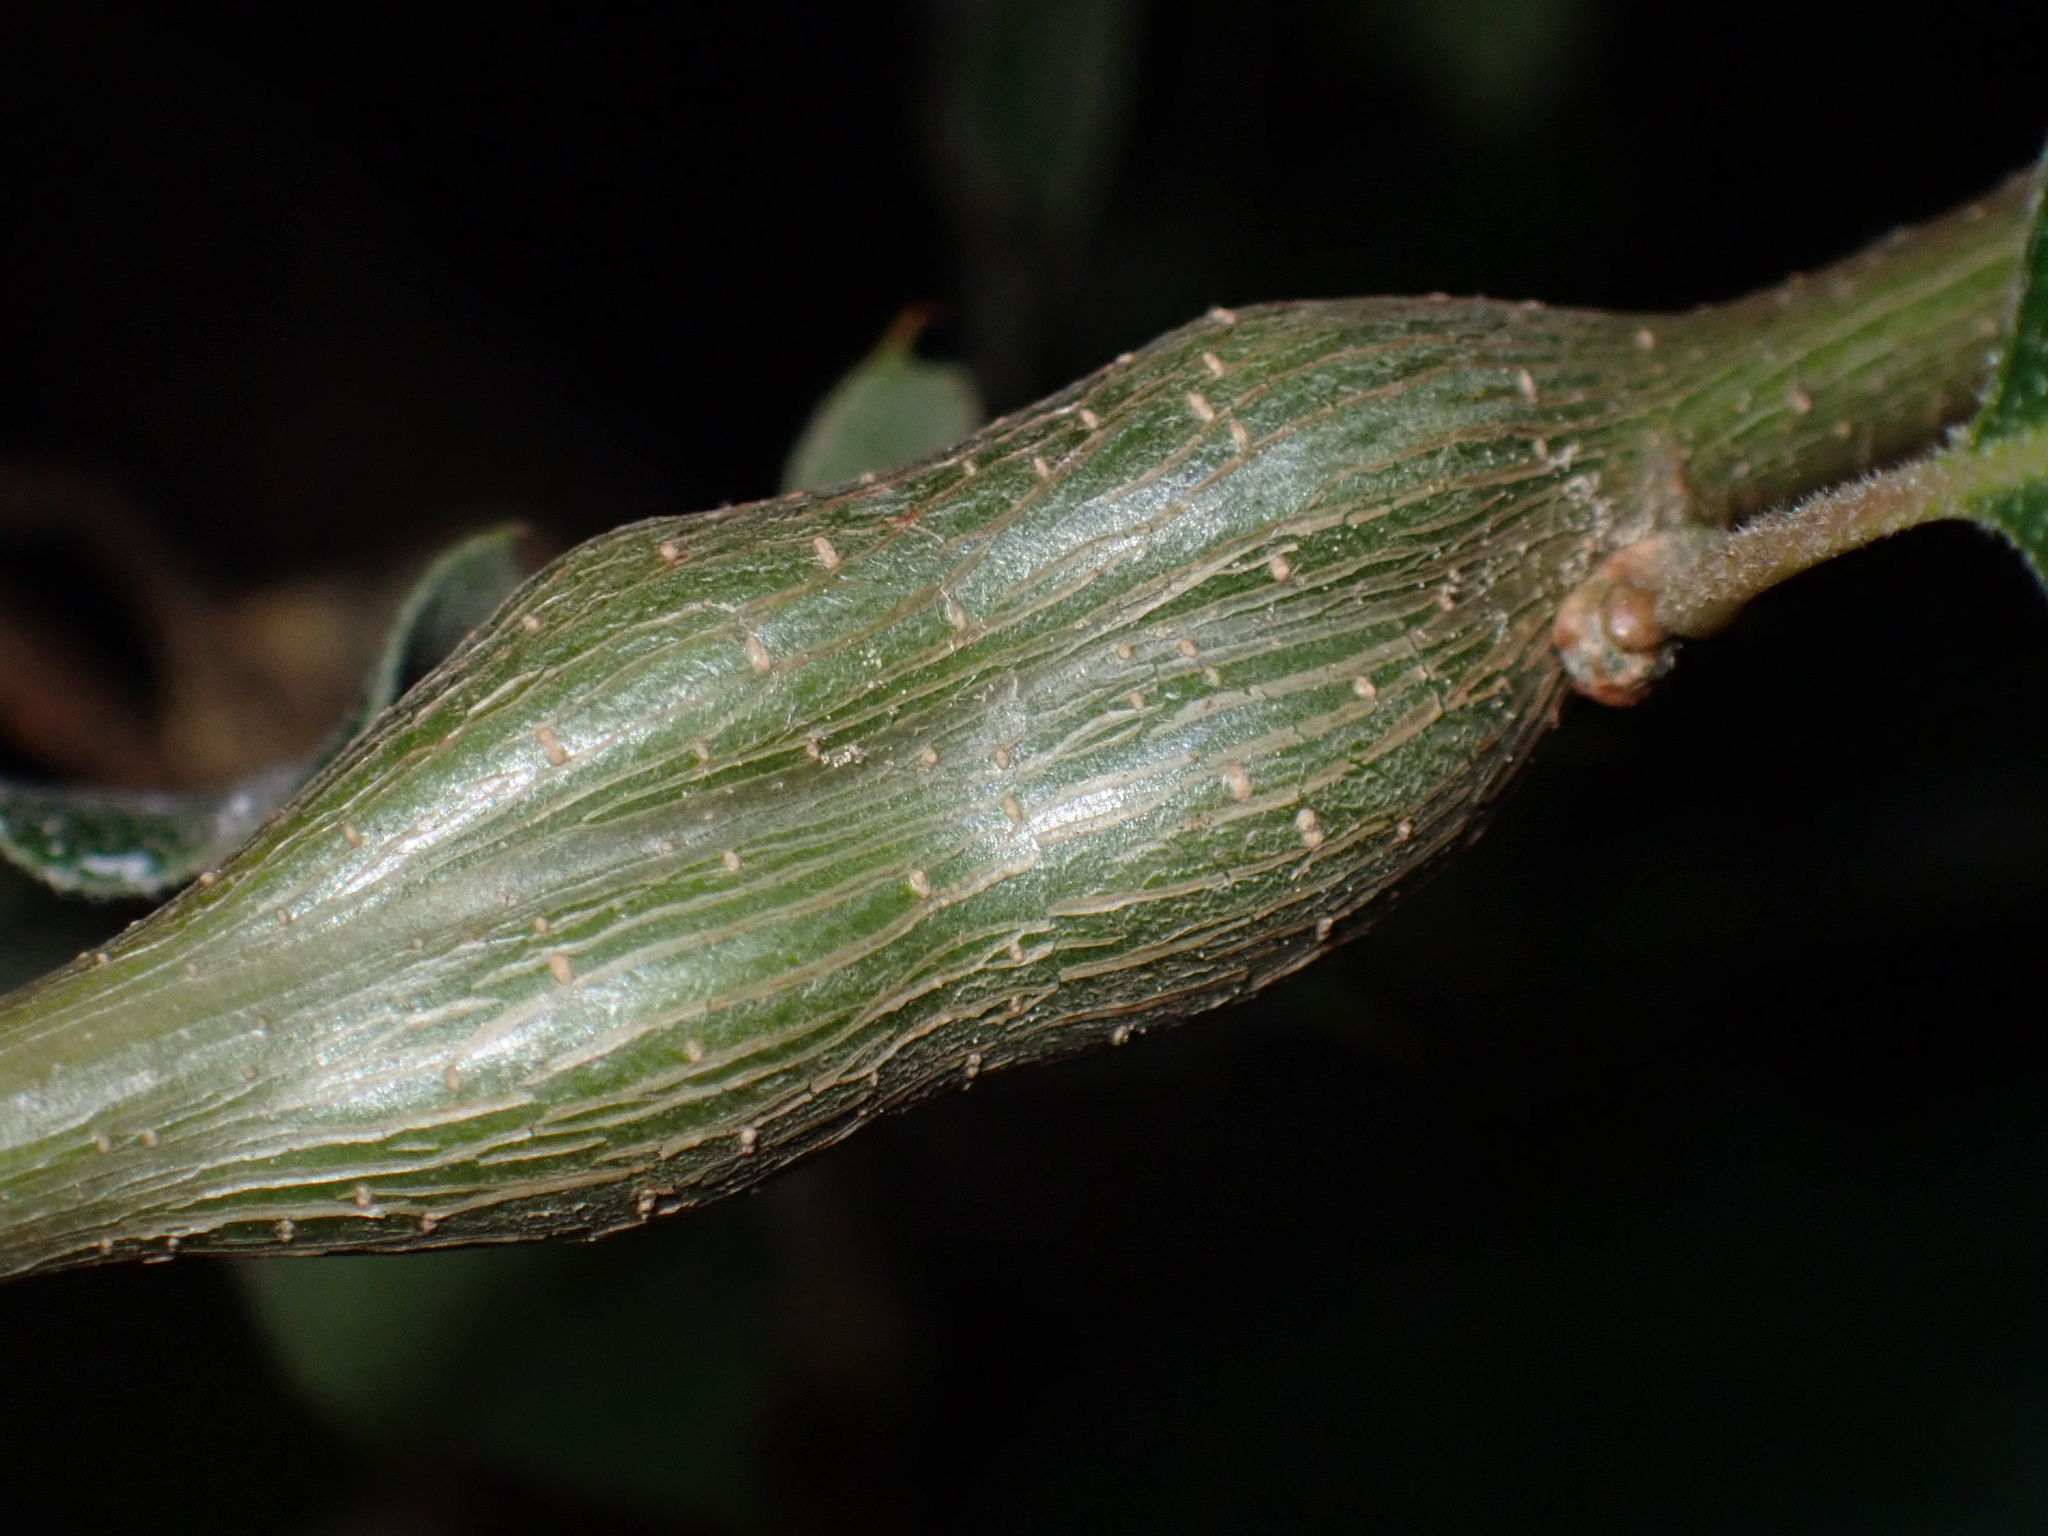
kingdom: Animalia
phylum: Arthropoda
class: Insecta
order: Hymenoptera
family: Cynipidae
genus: Callirhytis
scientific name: Callirhytis
